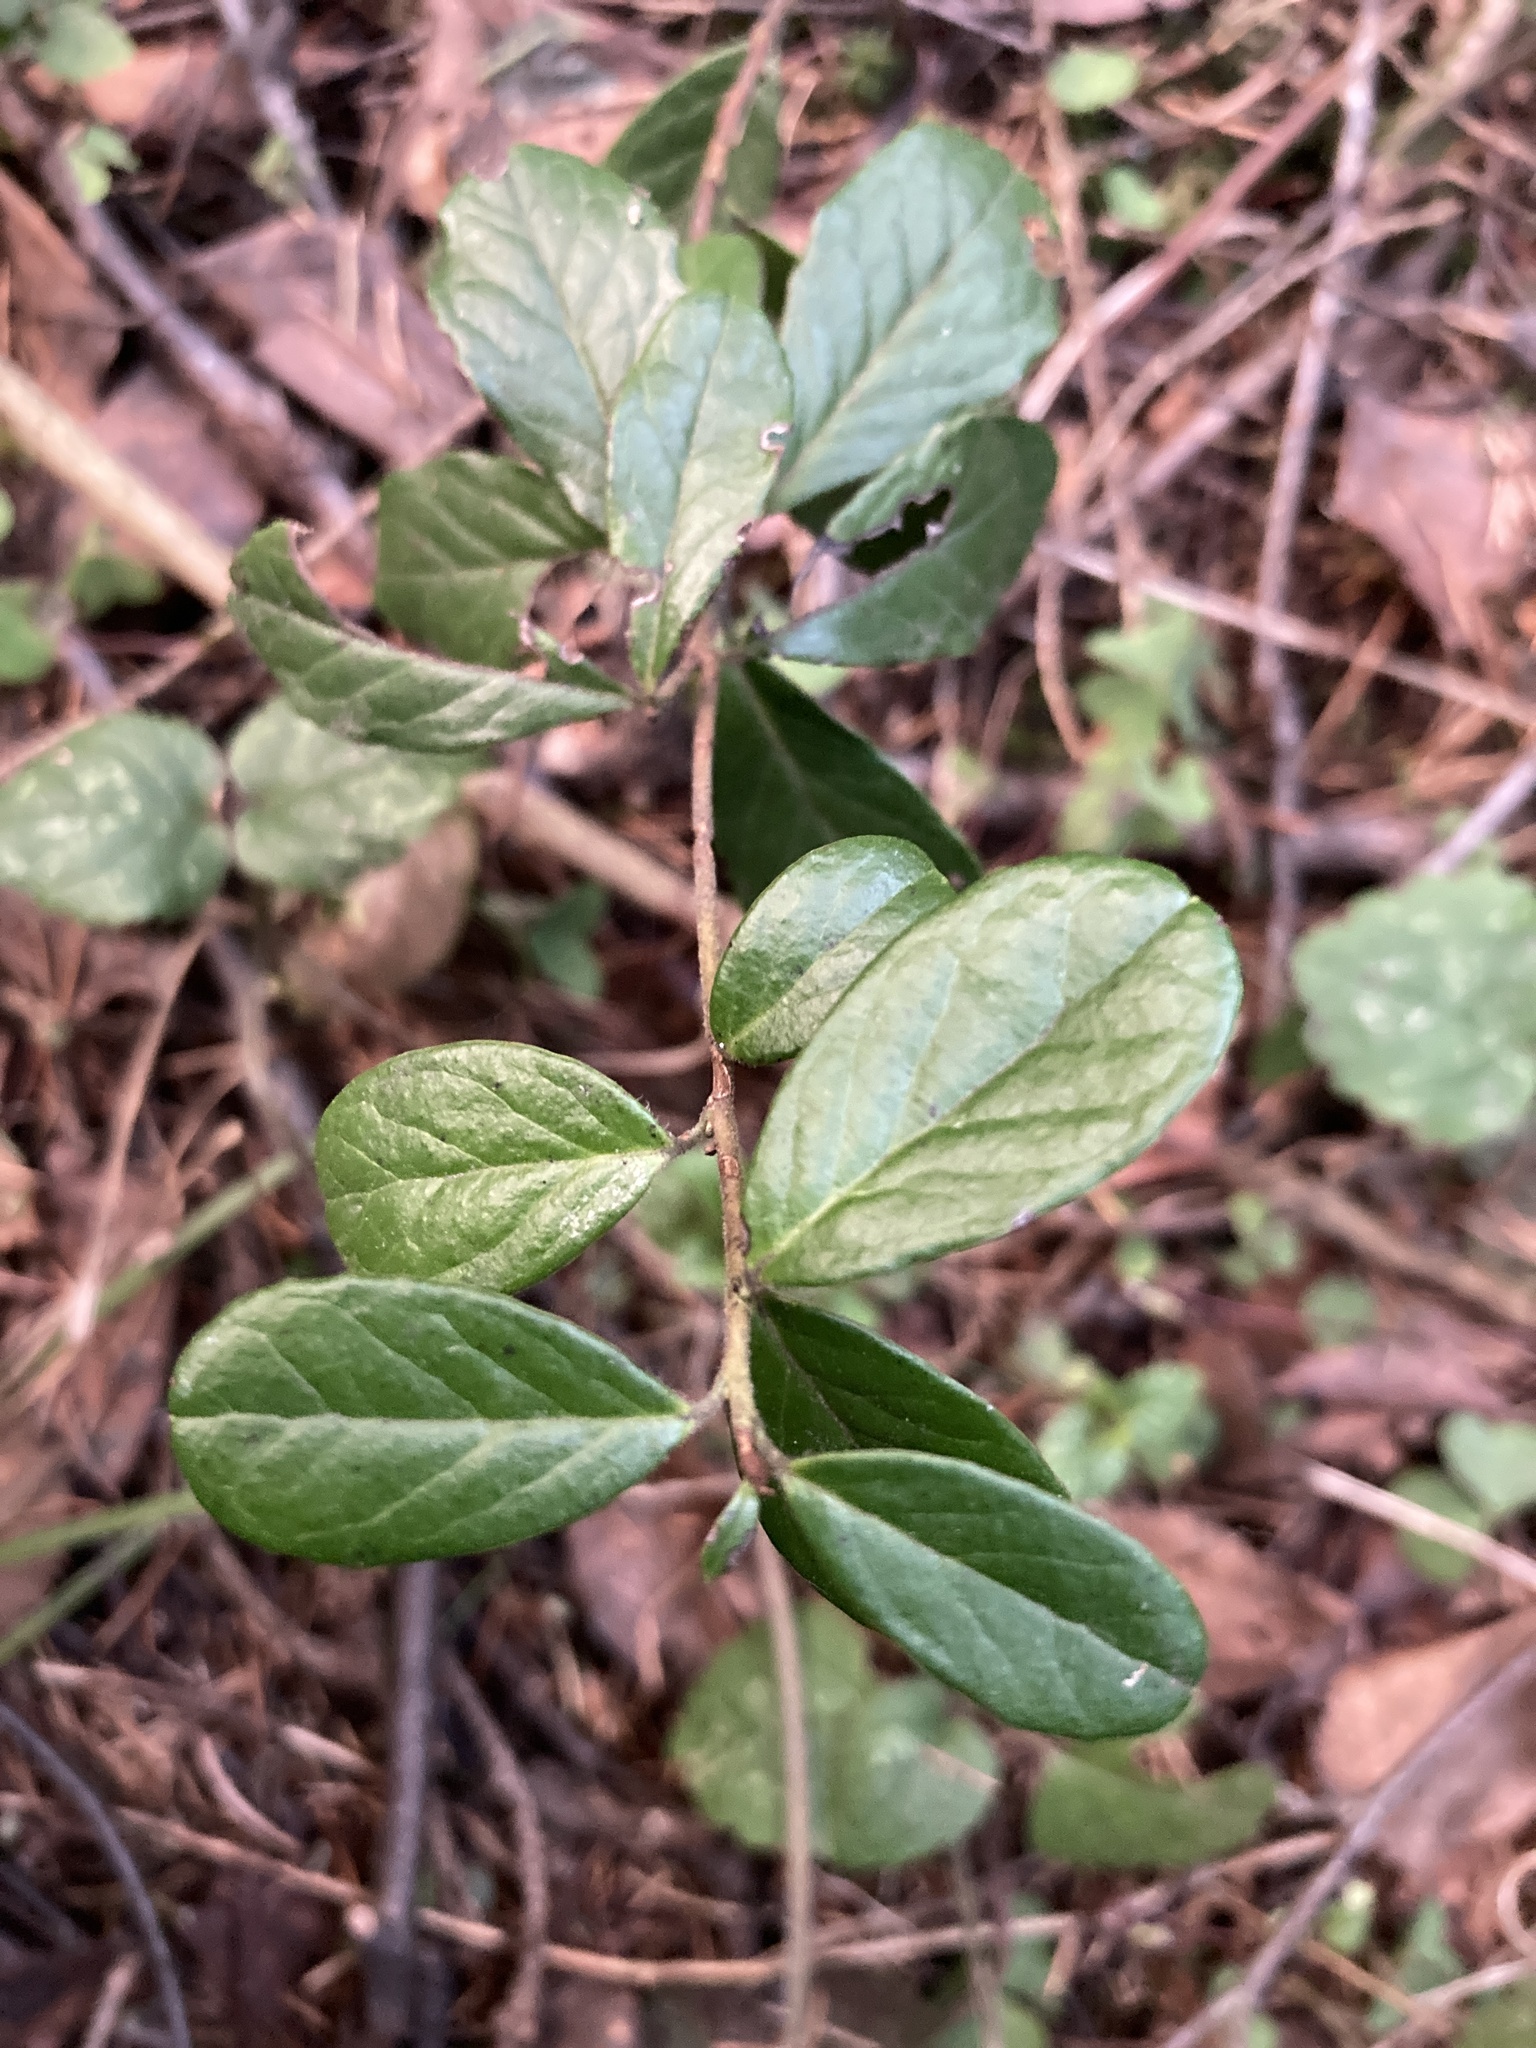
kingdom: Plantae
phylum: Tracheophyta
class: Magnoliopsida
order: Ericales
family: Ericaceae
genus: Vaccinium
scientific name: Vaccinium vitis-idaea
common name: Cowberry
